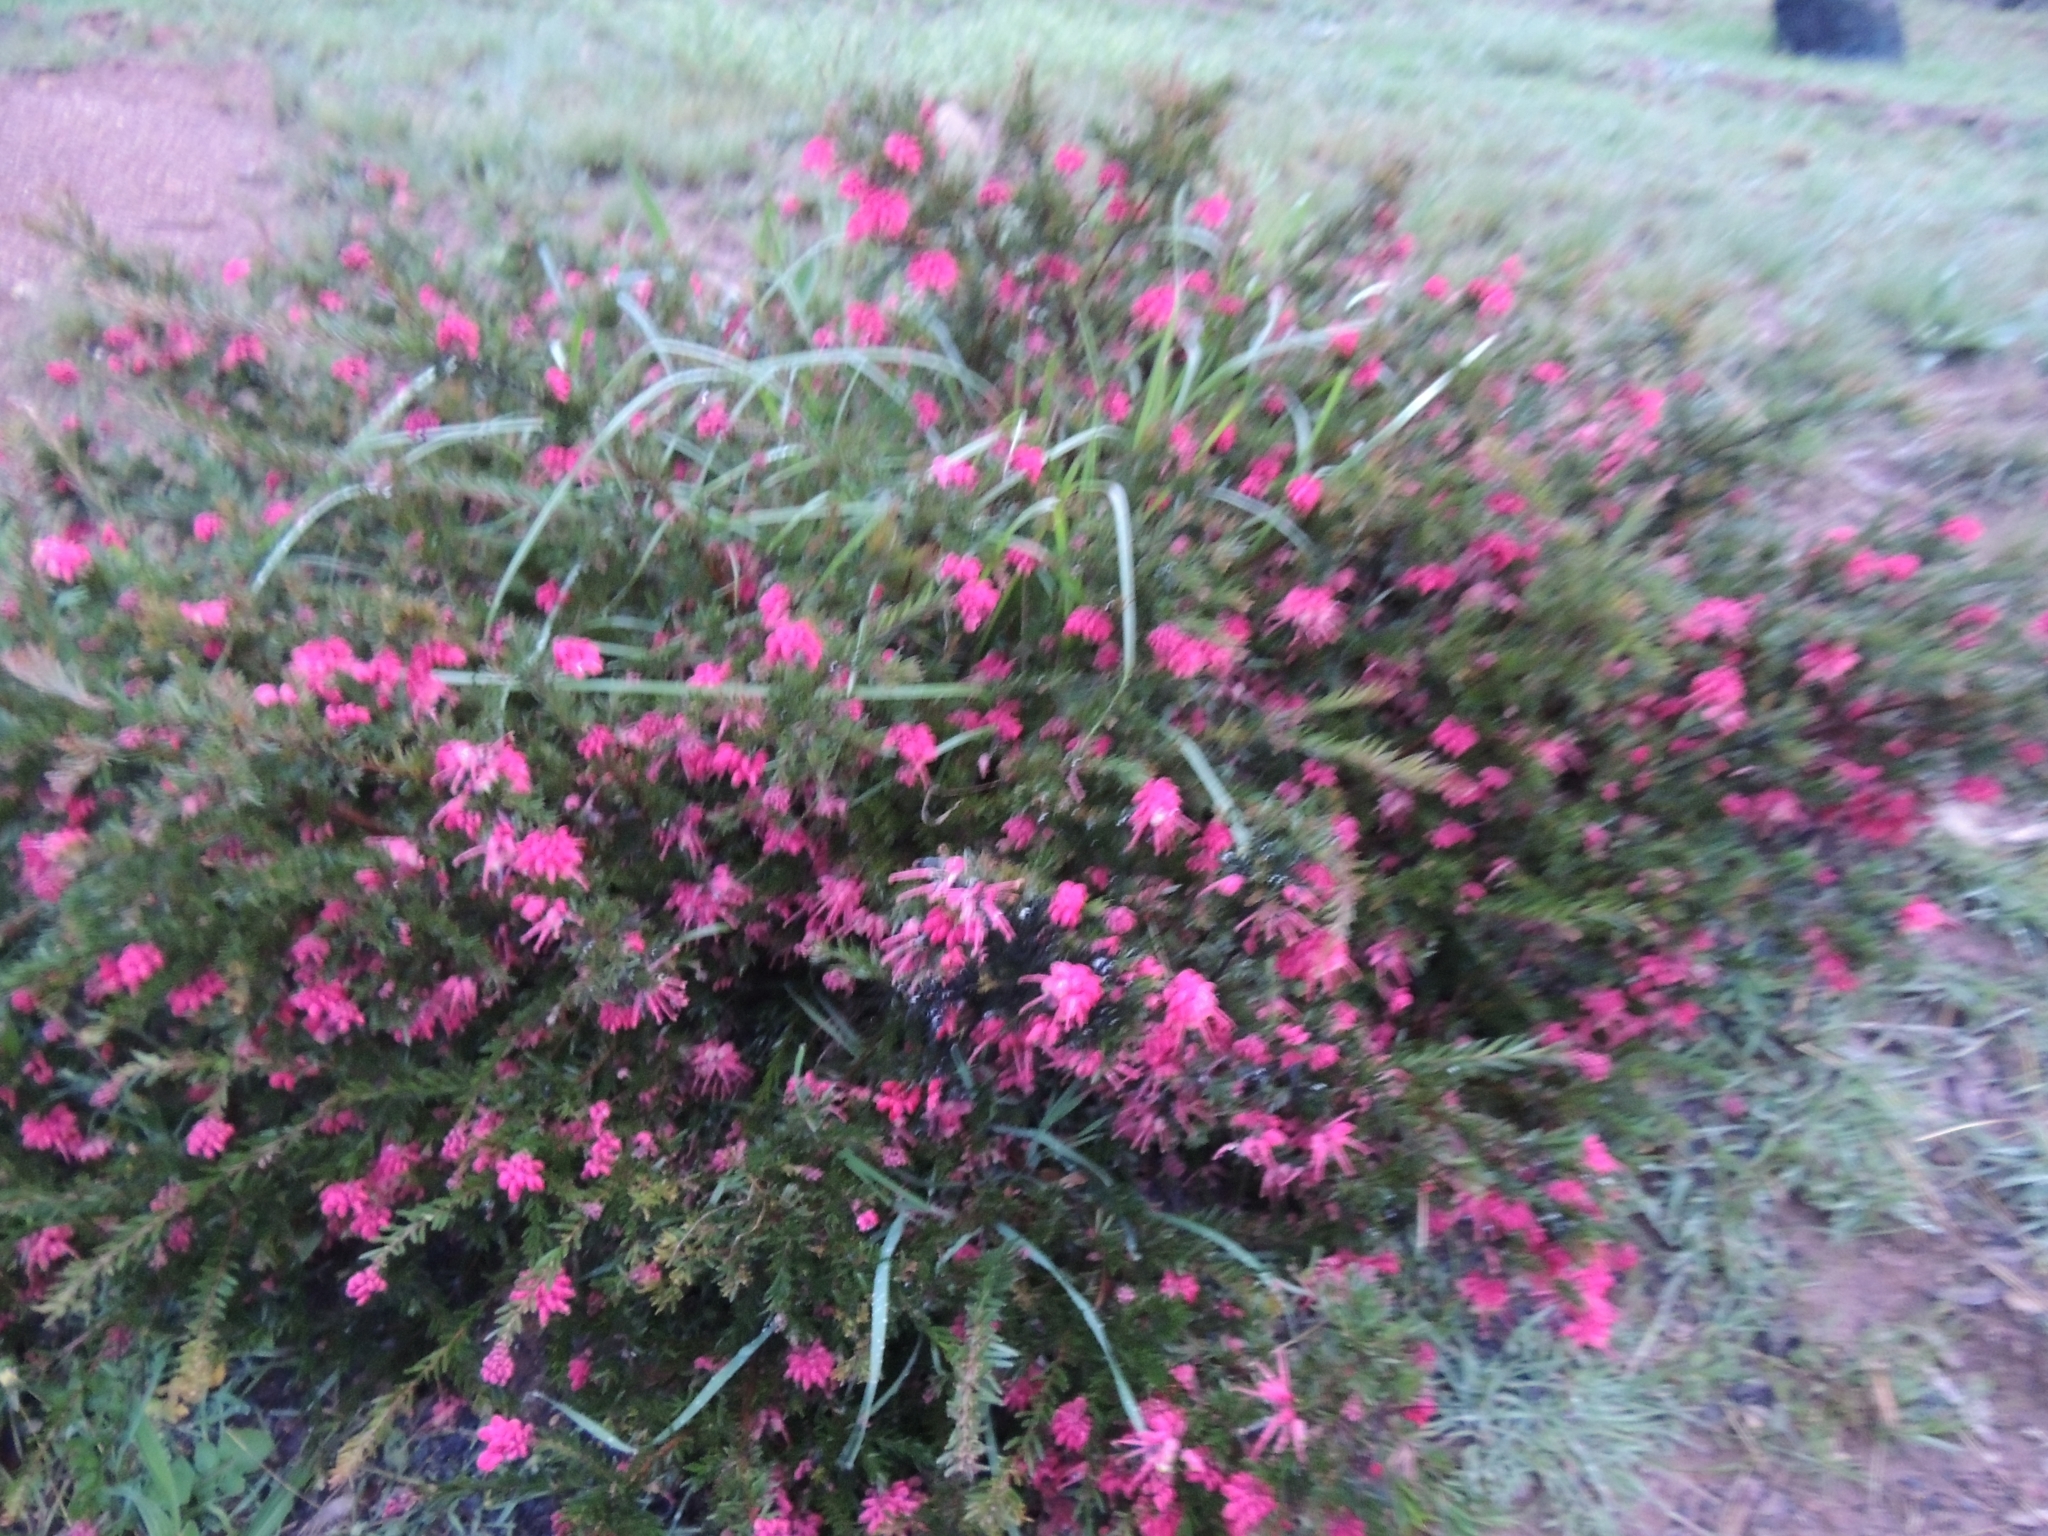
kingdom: Plantae
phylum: Tracheophyta
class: Magnoliopsida
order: Proteales
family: Proteaceae
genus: Grevillea
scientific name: Grevillea
